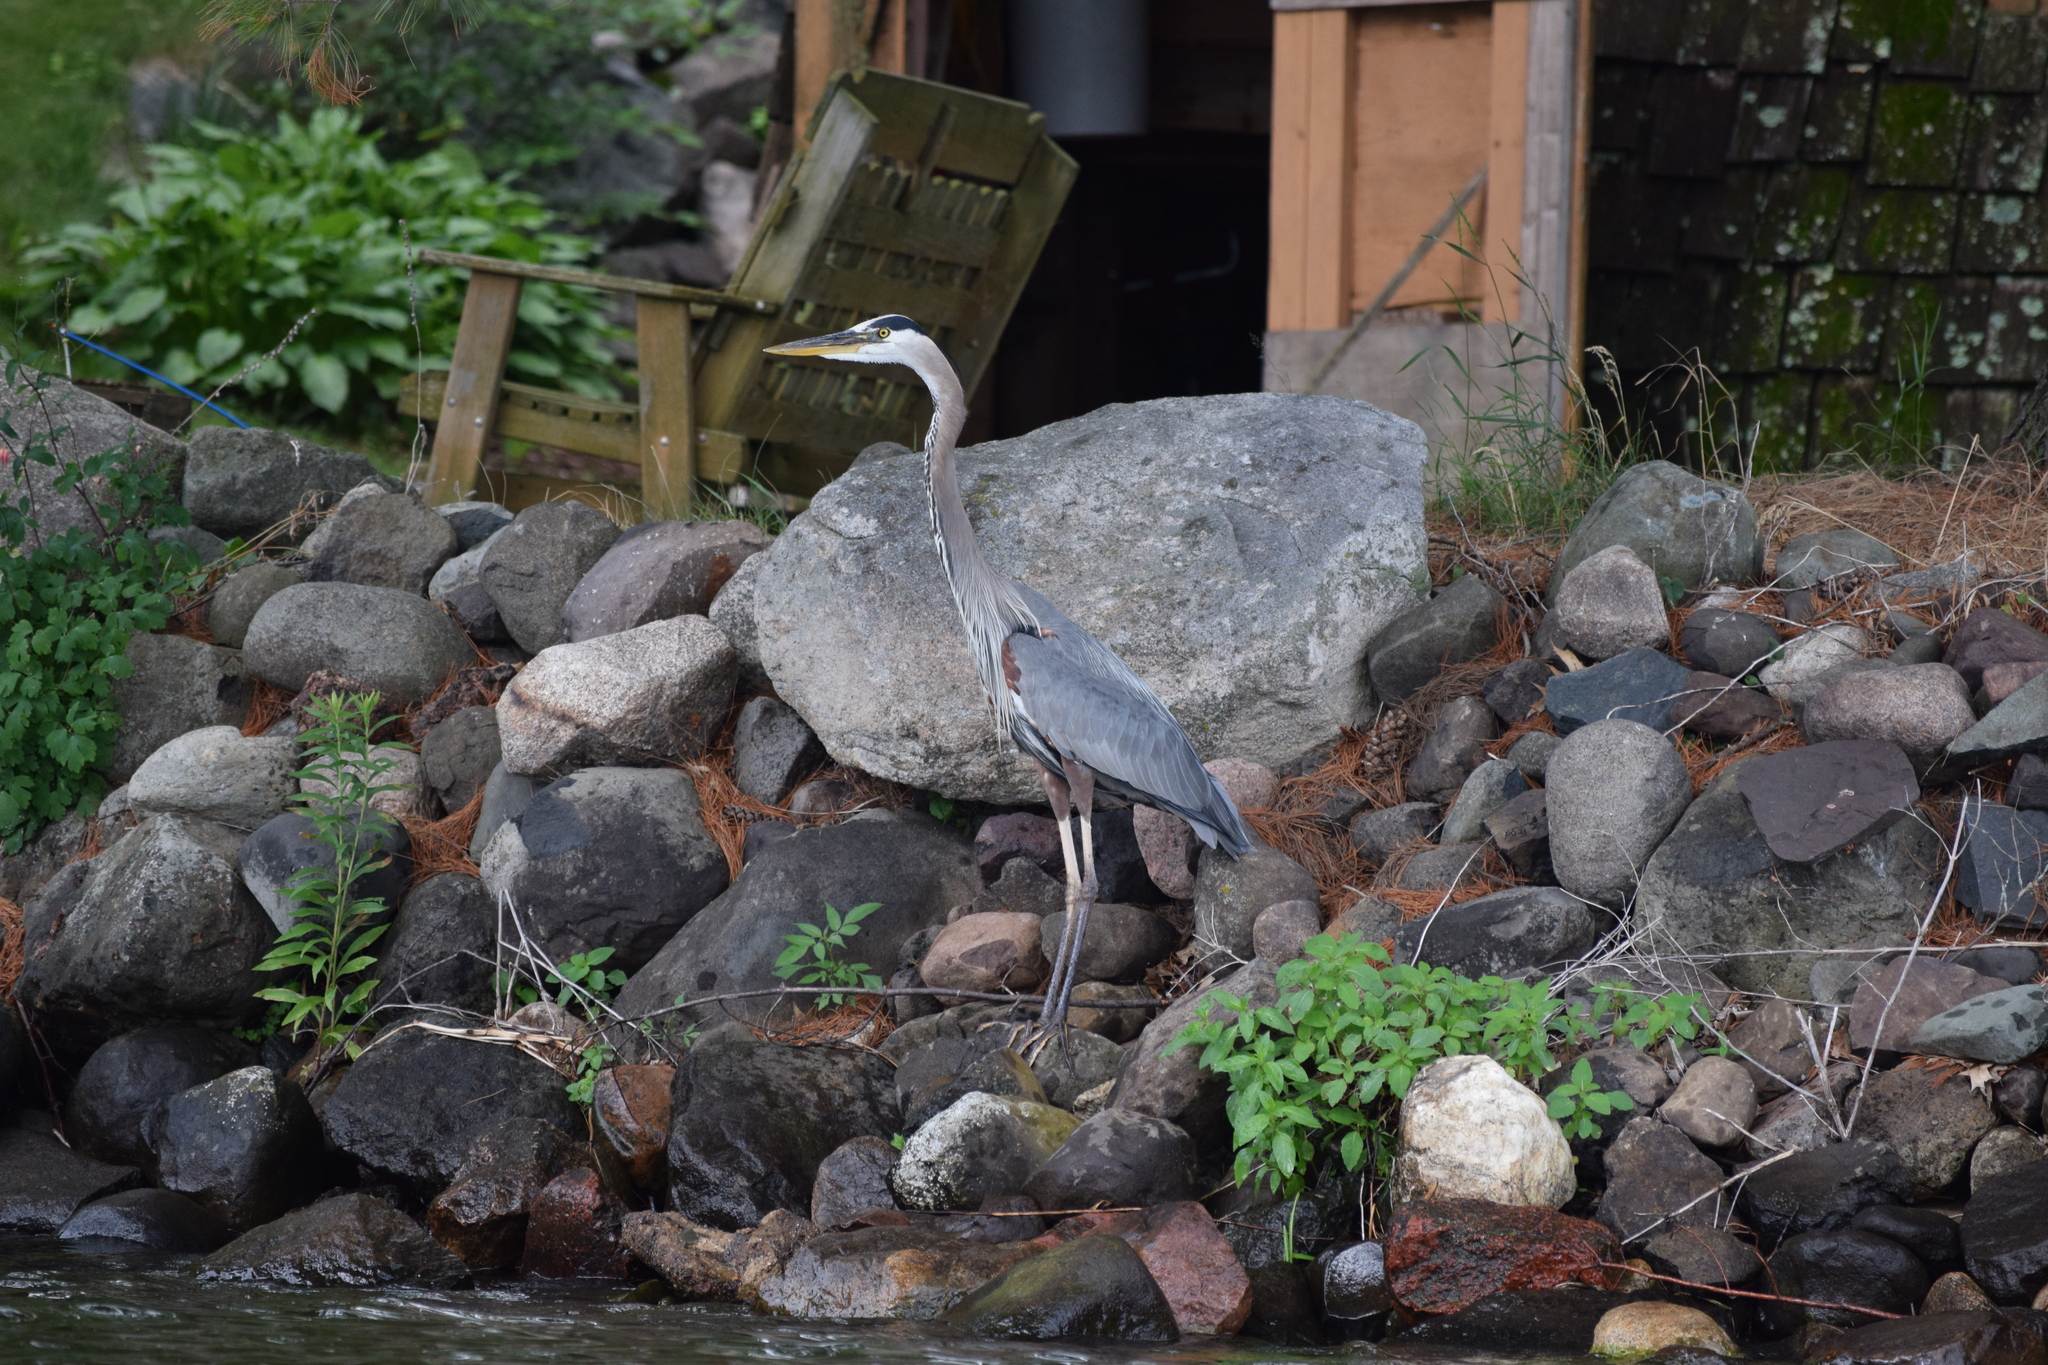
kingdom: Animalia
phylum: Chordata
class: Aves
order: Pelecaniformes
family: Ardeidae
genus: Ardea
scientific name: Ardea herodias
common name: Great blue heron
